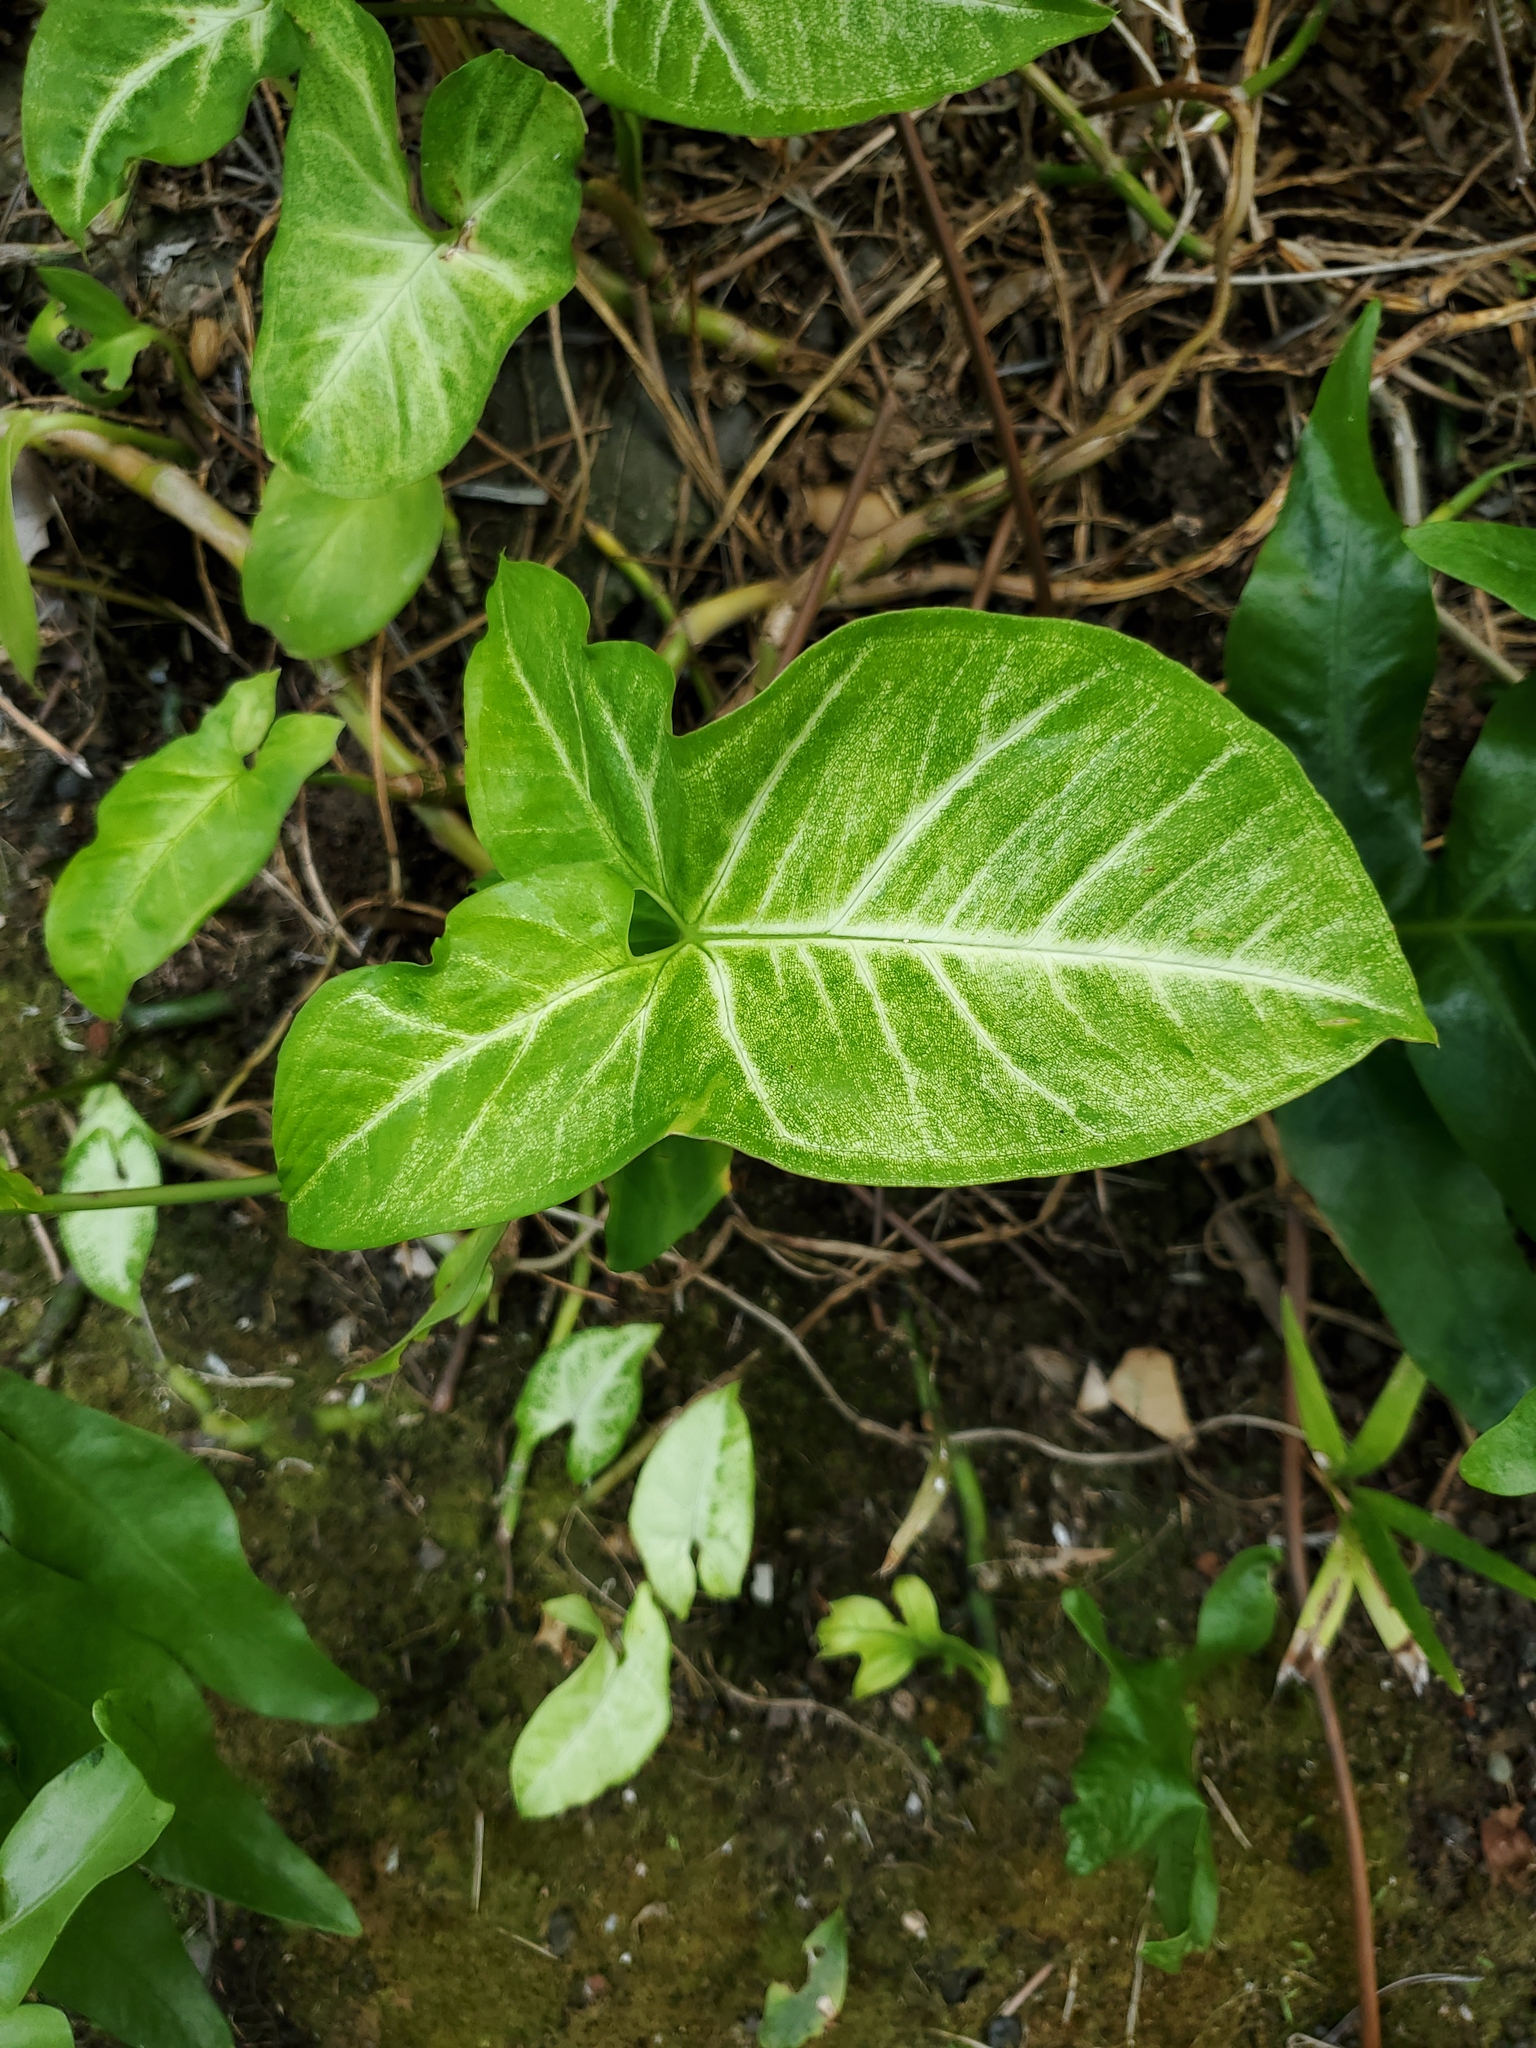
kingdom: Plantae
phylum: Tracheophyta
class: Liliopsida
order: Alismatales
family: Araceae
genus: Syngonium
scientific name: Syngonium podophyllum
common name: American evergreen
